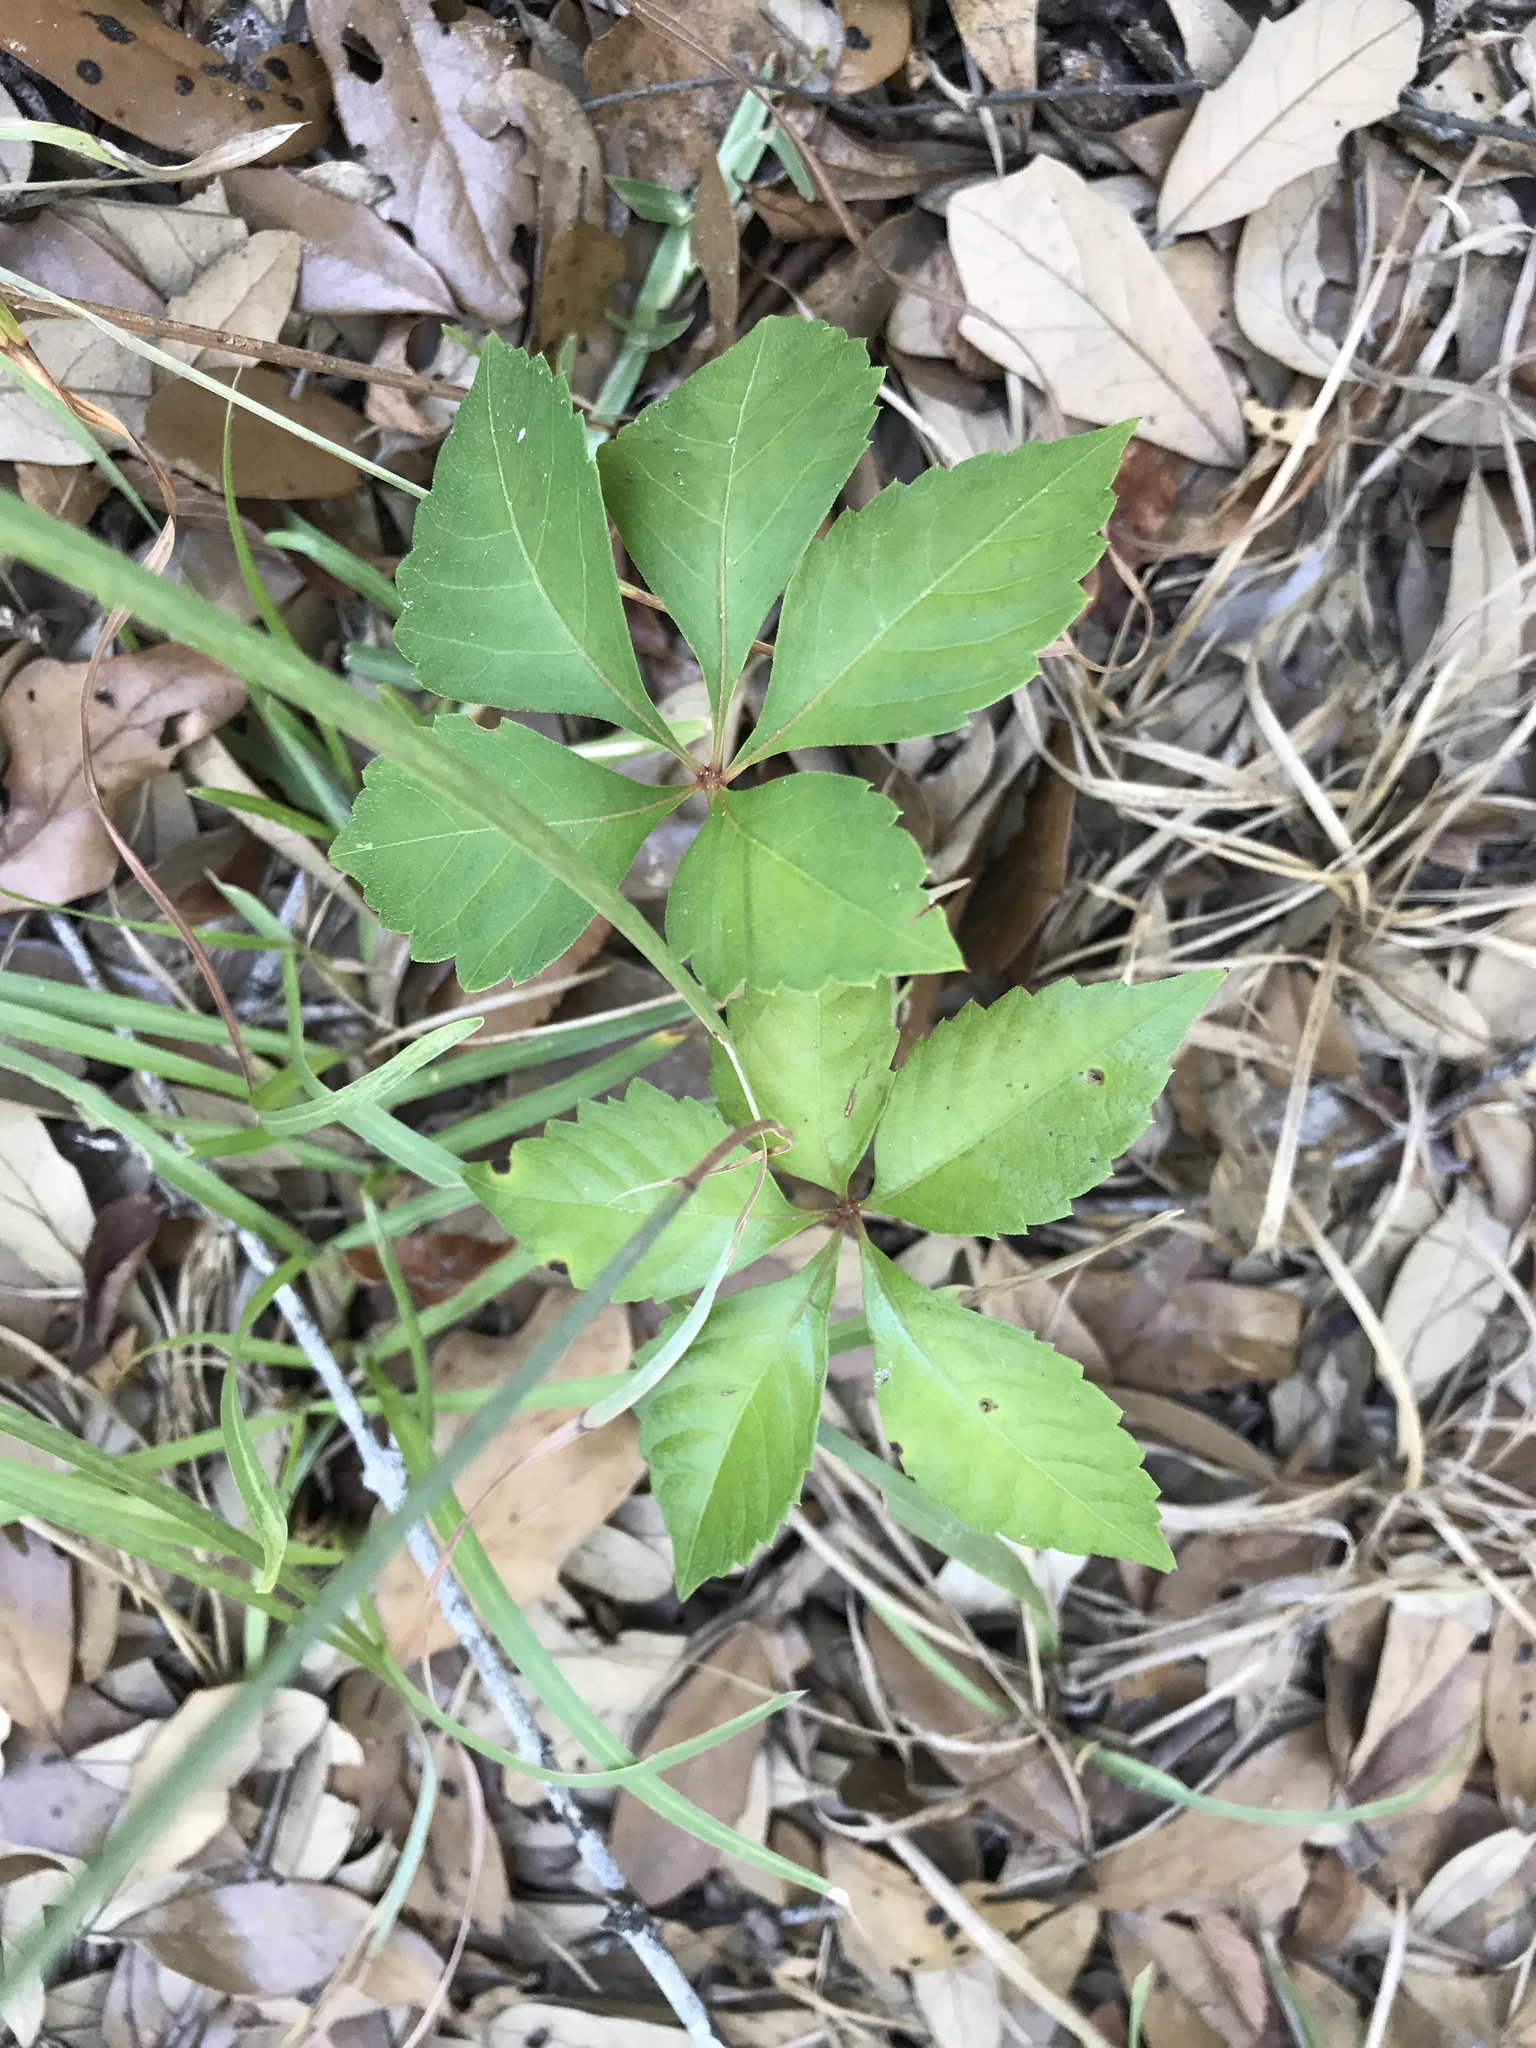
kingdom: Plantae
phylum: Tracheophyta
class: Magnoliopsida
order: Vitales
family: Vitaceae
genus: Parthenocissus
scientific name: Parthenocissus quinquefolia
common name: Virginia-creeper
